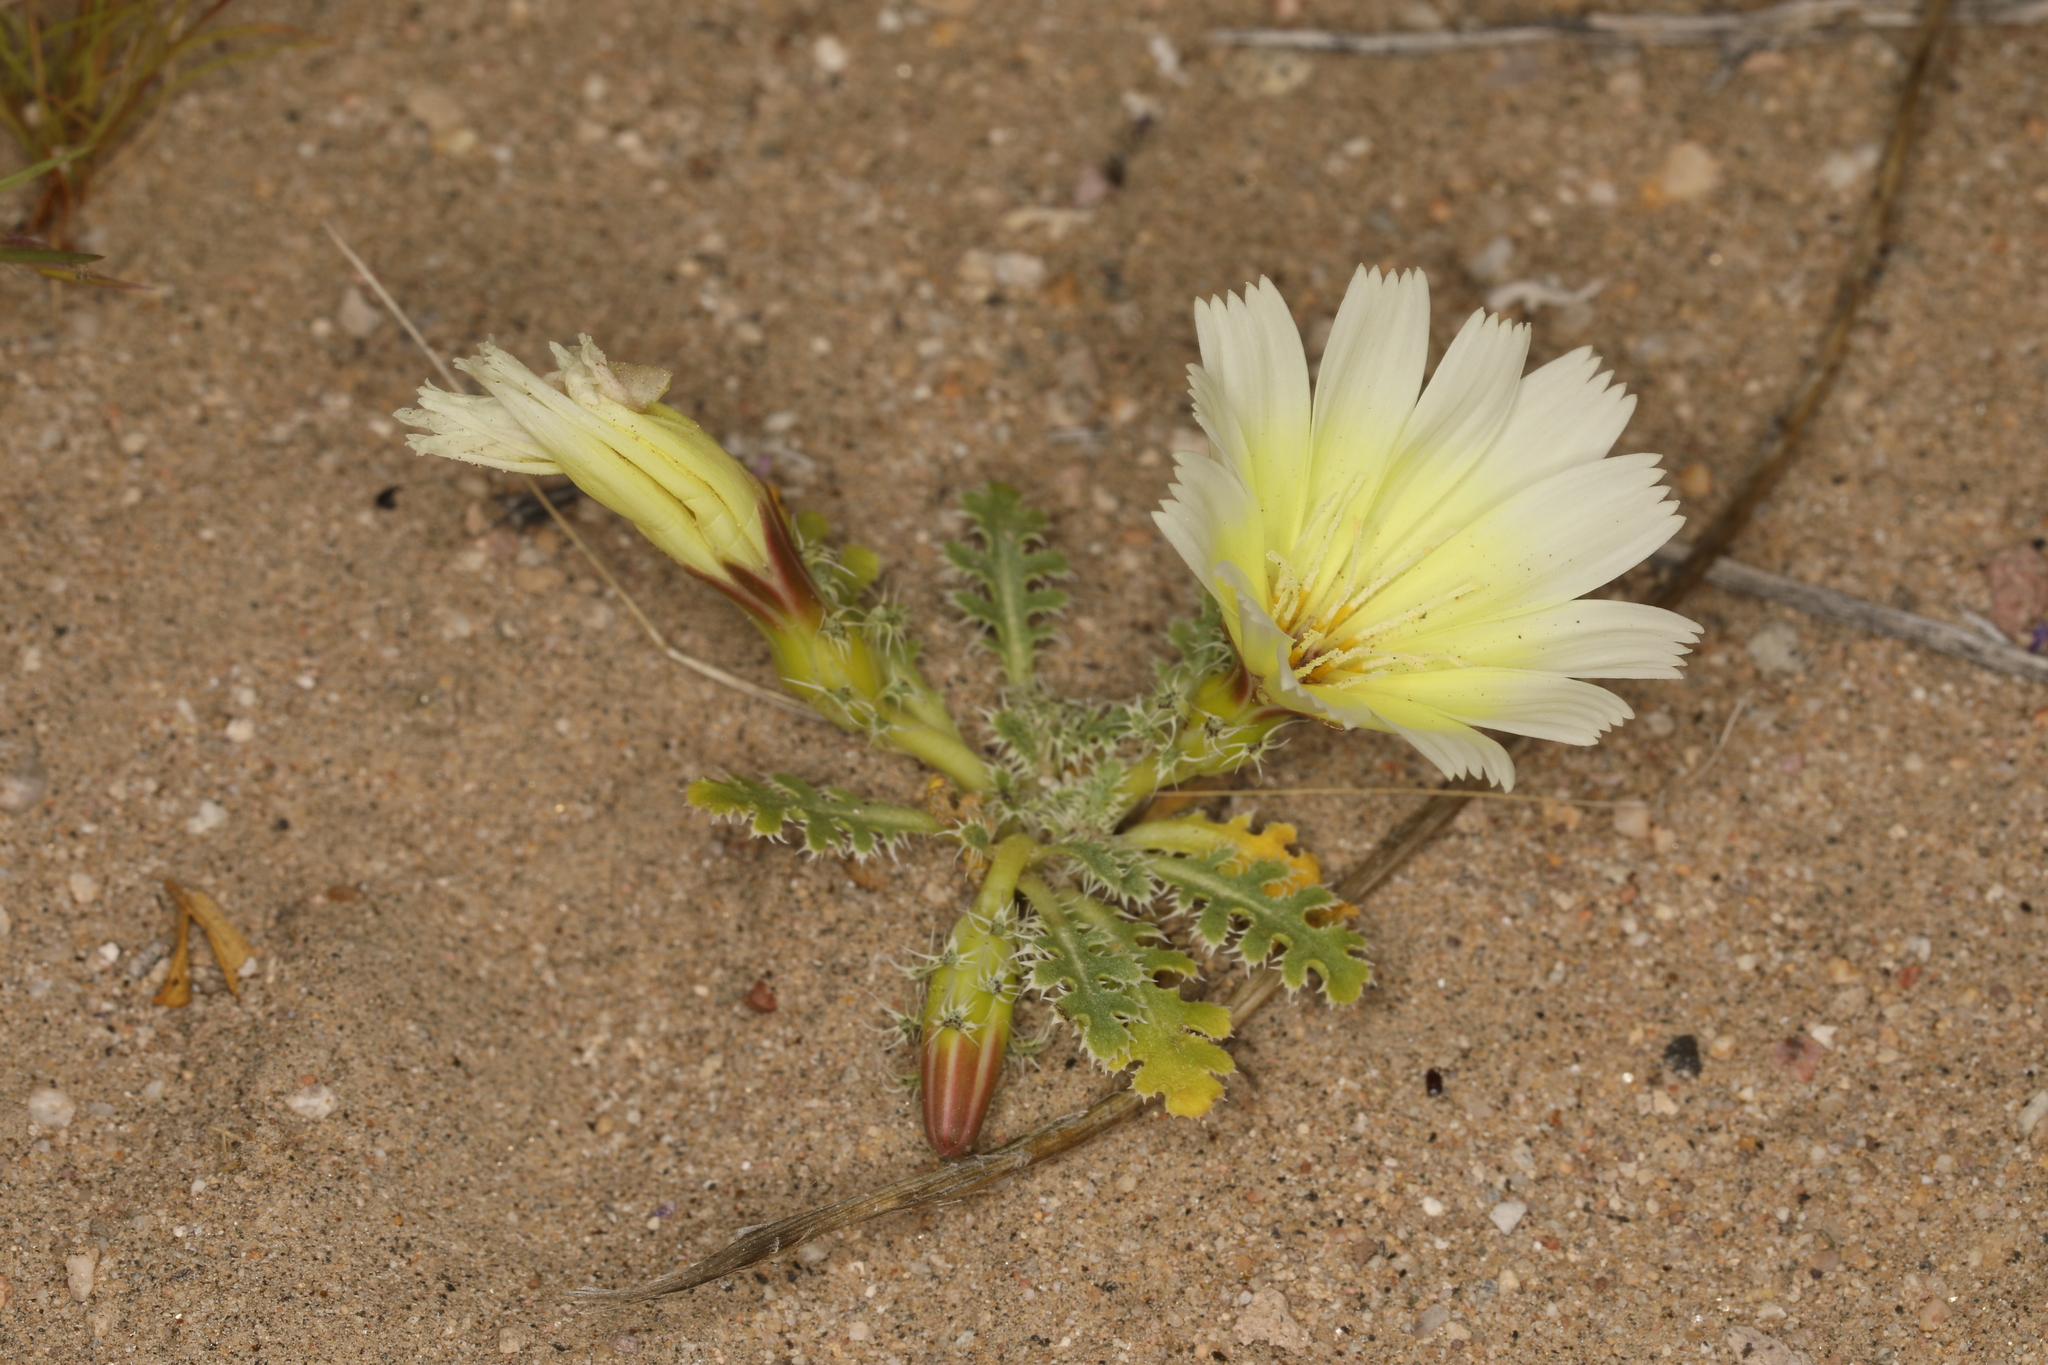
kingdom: Plantae
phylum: Tracheophyta
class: Magnoliopsida
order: Asterales
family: Asteraceae
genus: Glyptopleura
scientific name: Glyptopleura setulosa
